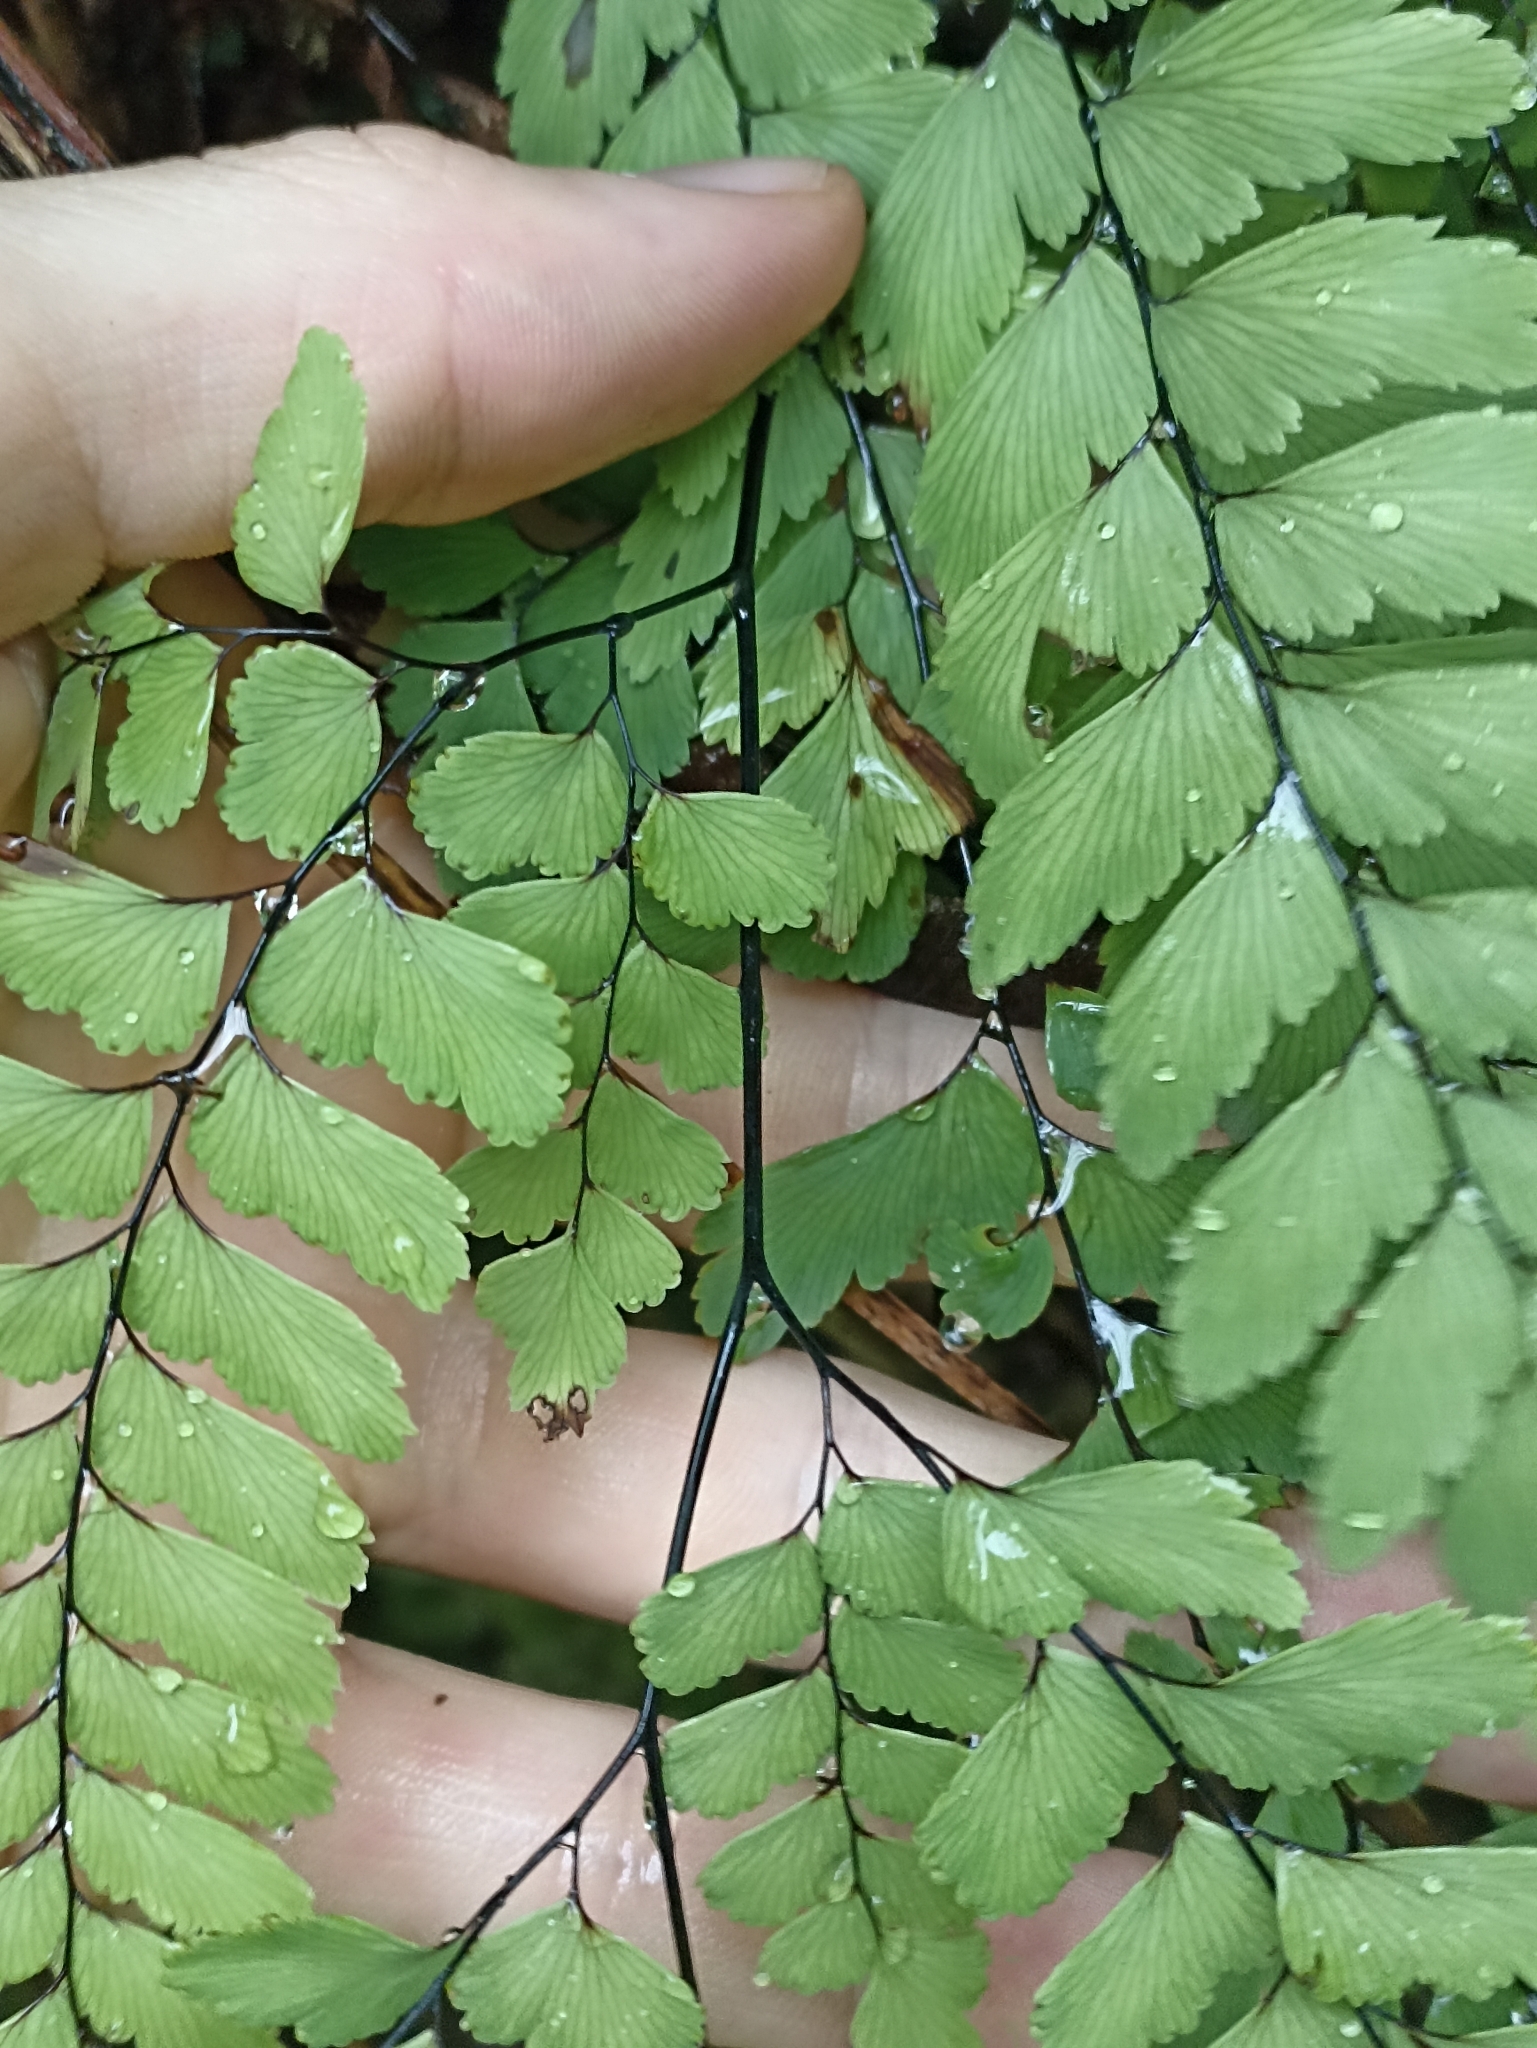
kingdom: Plantae
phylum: Tracheophyta
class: Polypodiopsida
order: Polypodiales
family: Pteridaceae
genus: Adiantum
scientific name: Adiantum cunninghamii
